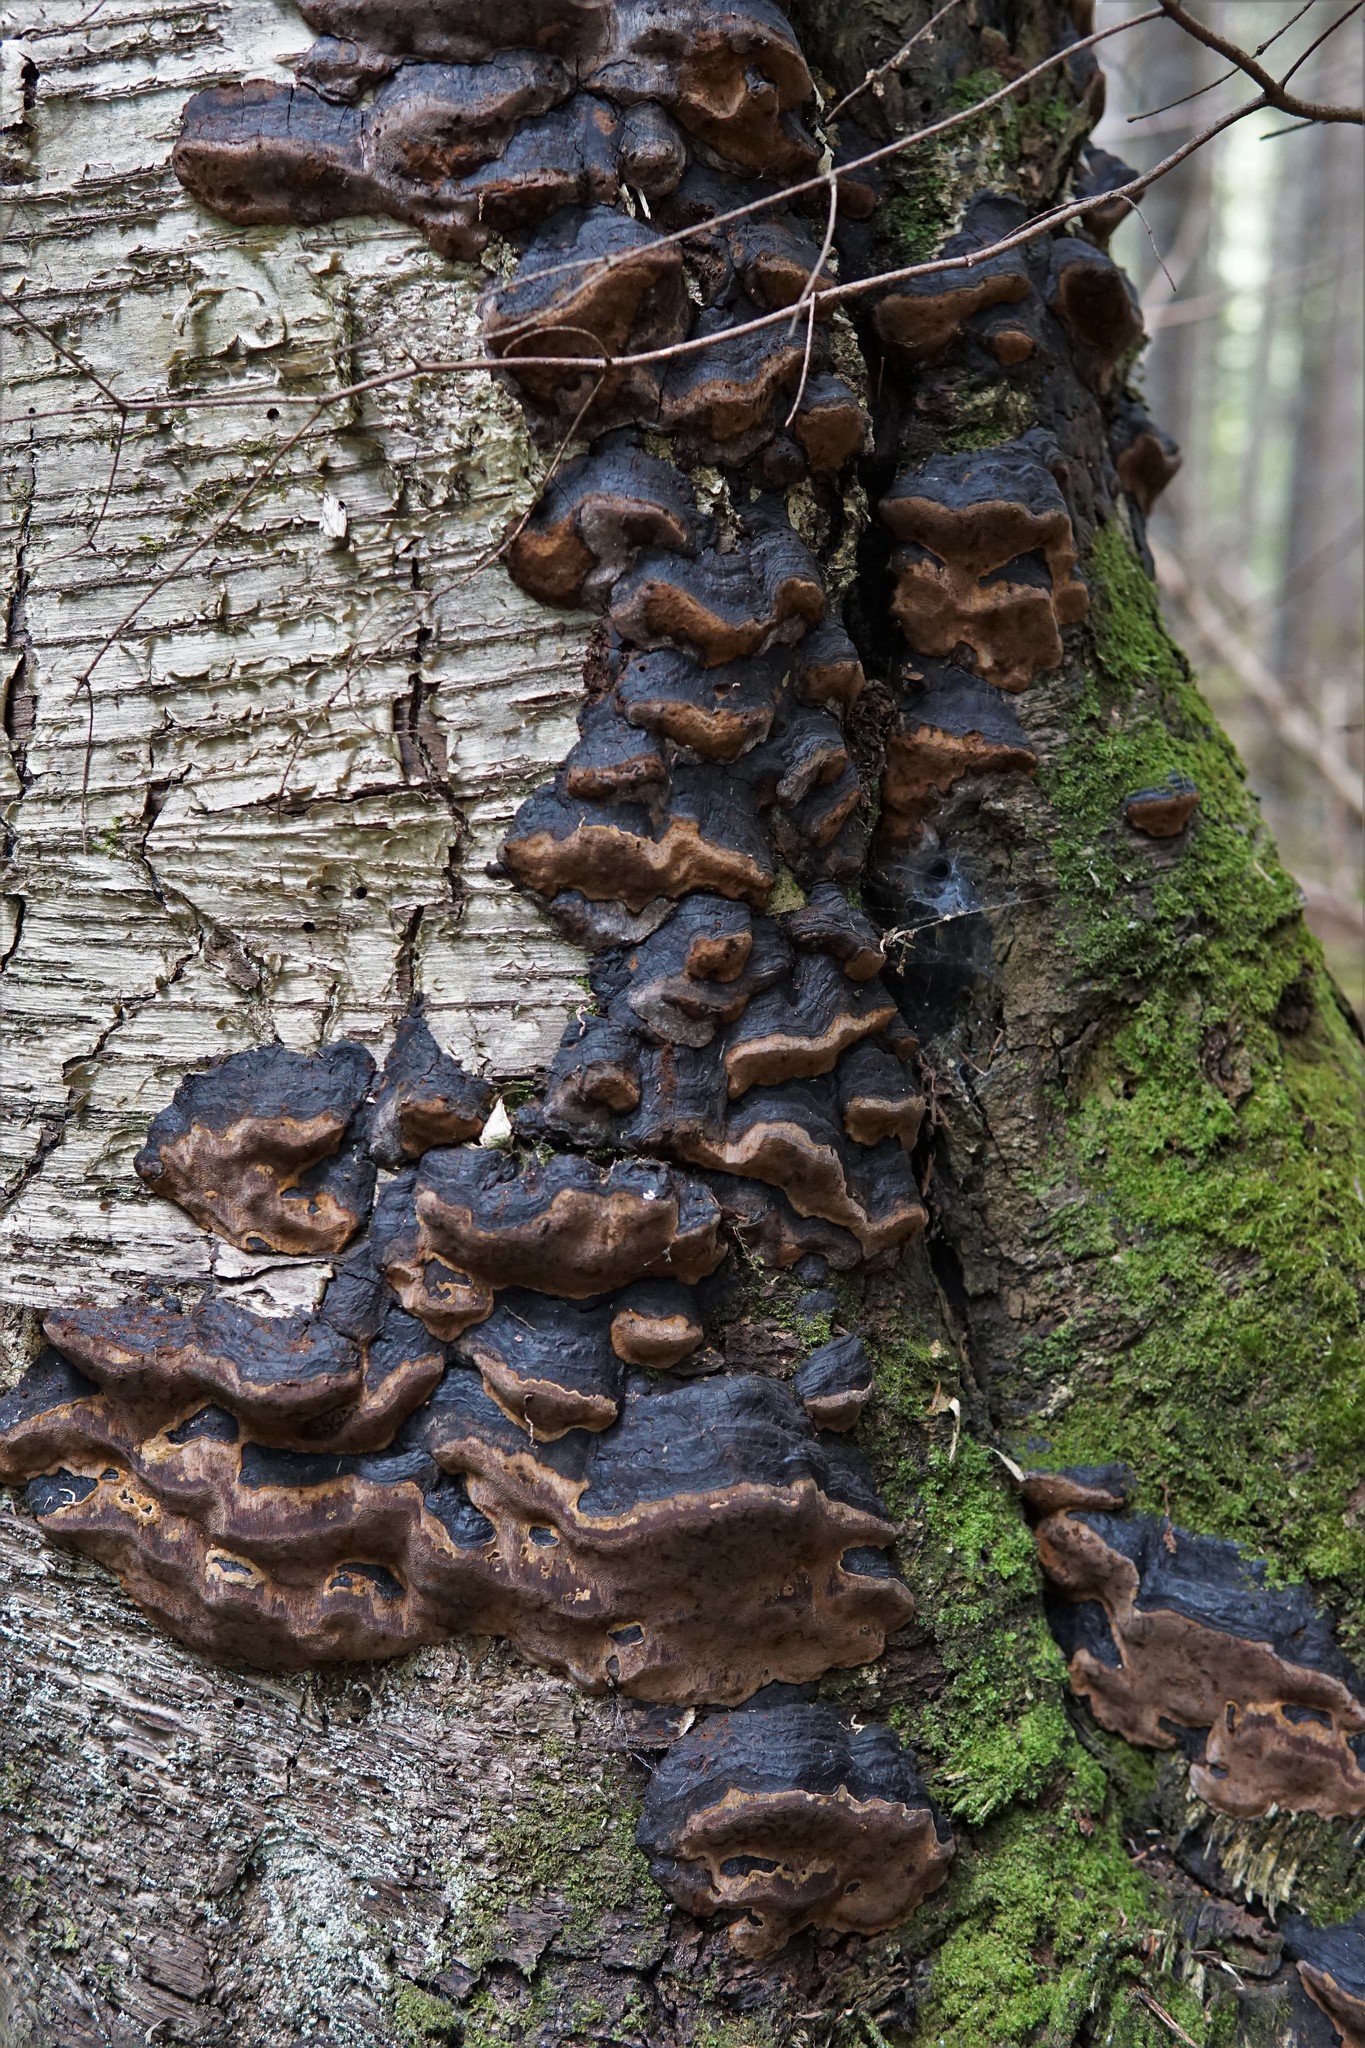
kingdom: Fungi
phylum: Basidiomycota
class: Agaricomycetes
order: Hymenochaetales
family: Hymenochaetaceae
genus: Phellinus
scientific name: Phellinus lundellii
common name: Birch bristle bracket
